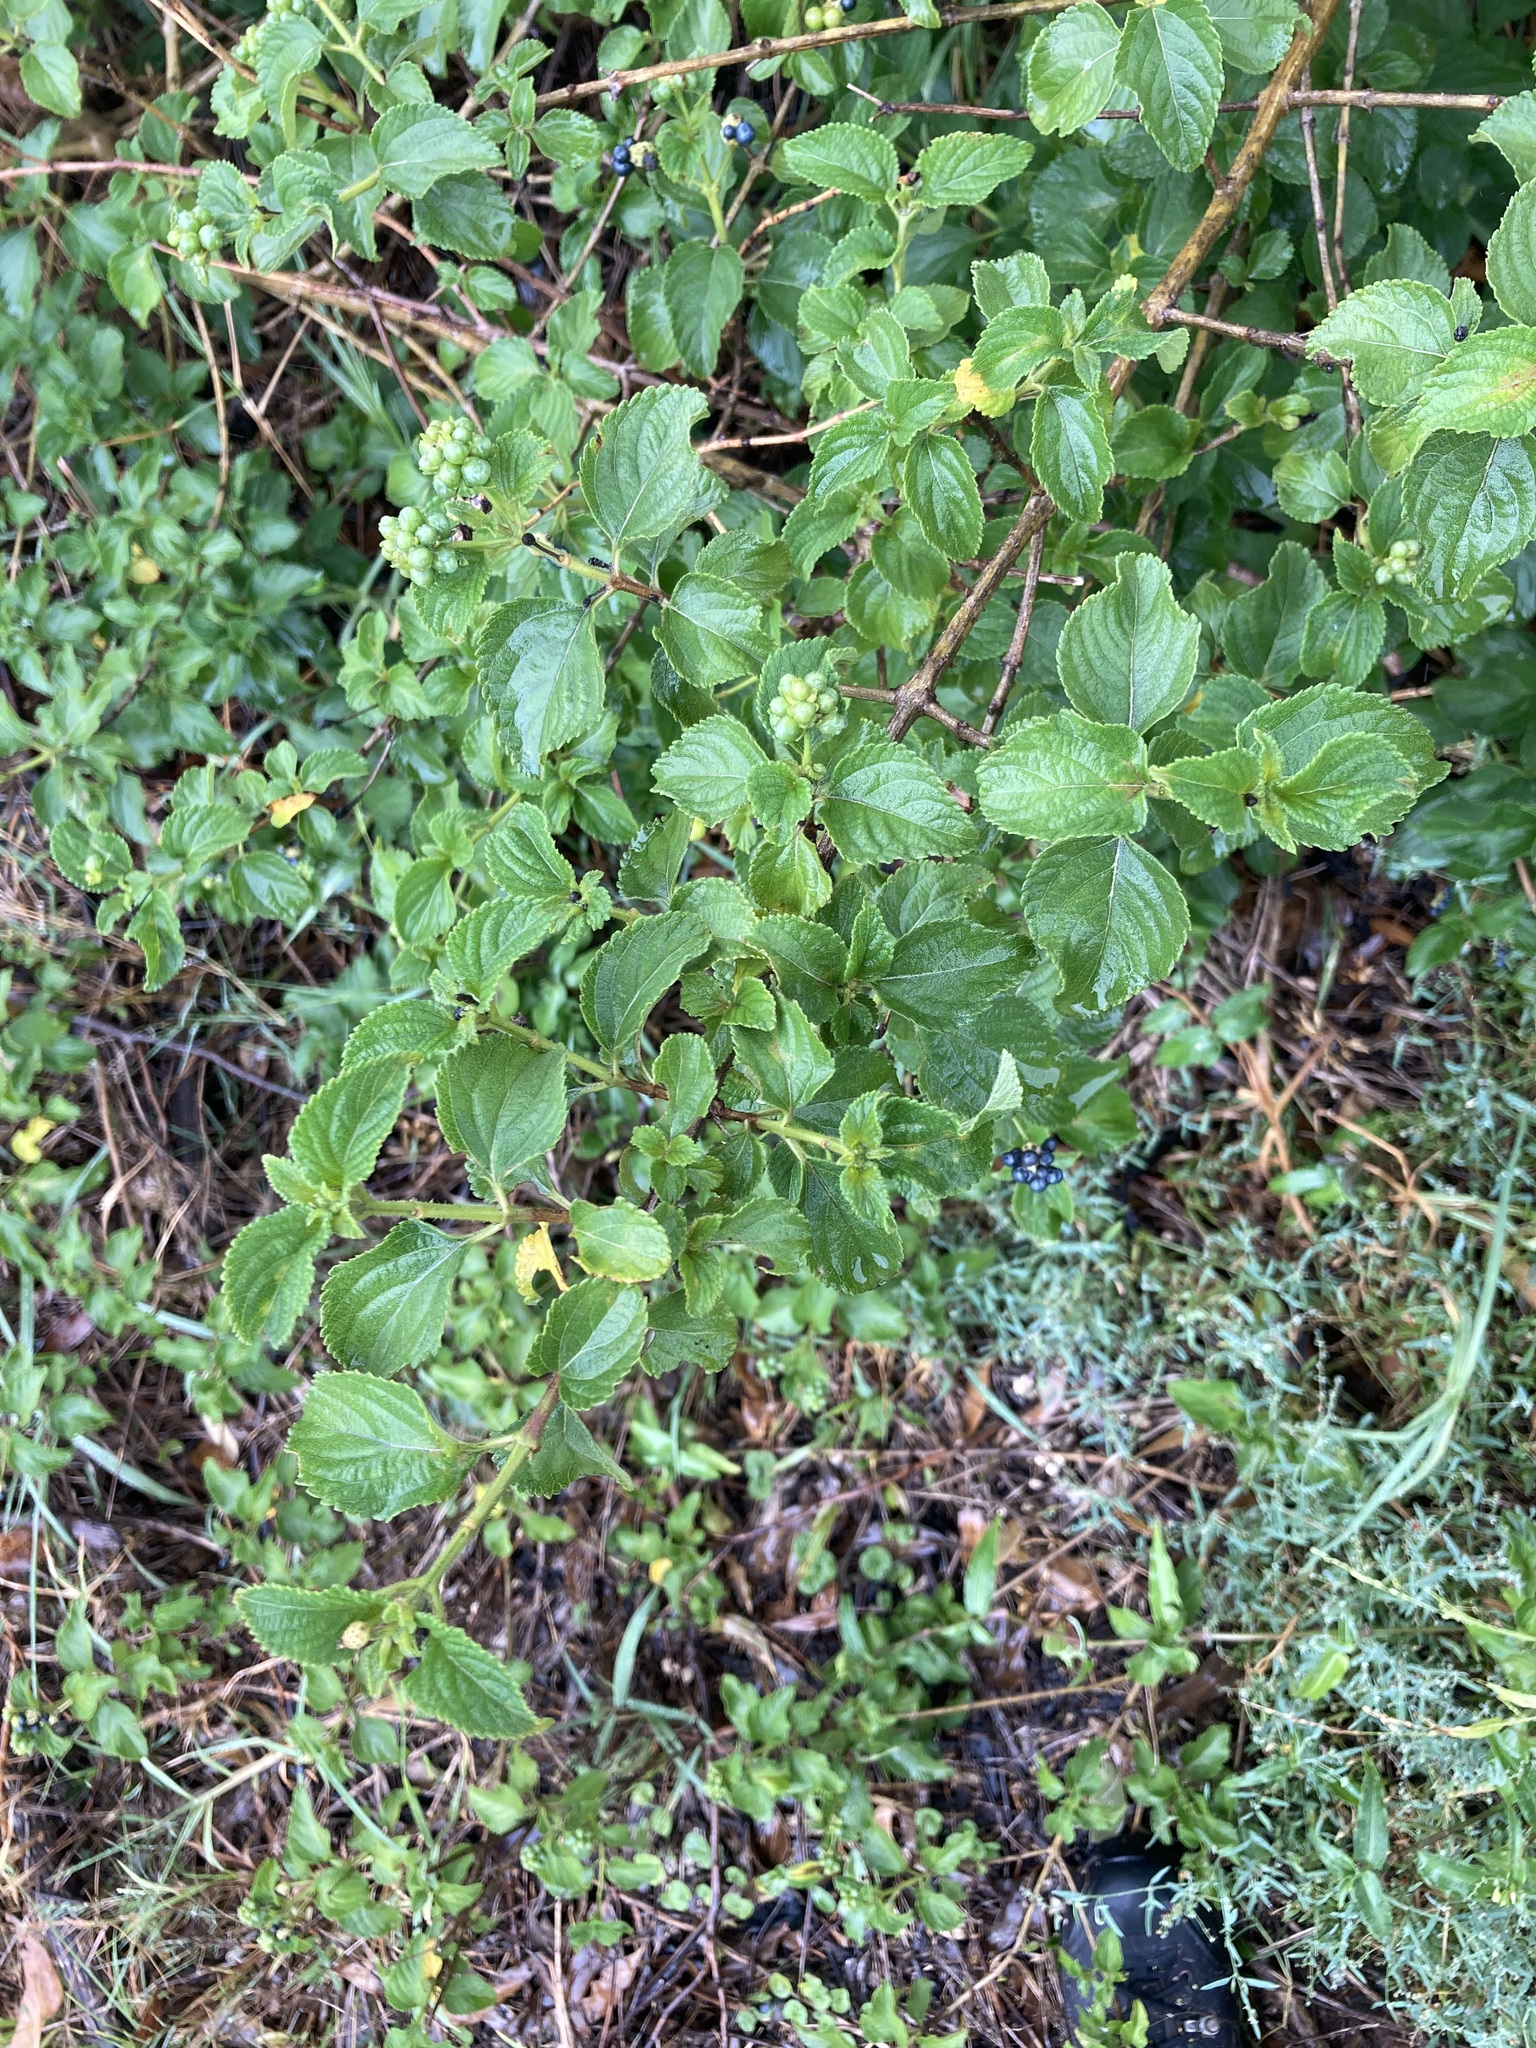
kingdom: Plantae
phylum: Tracheophyta
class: Magnoliopsida
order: Lamiales
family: Verbenaceae
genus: Lantana
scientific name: Lantana camara
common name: Lantana
